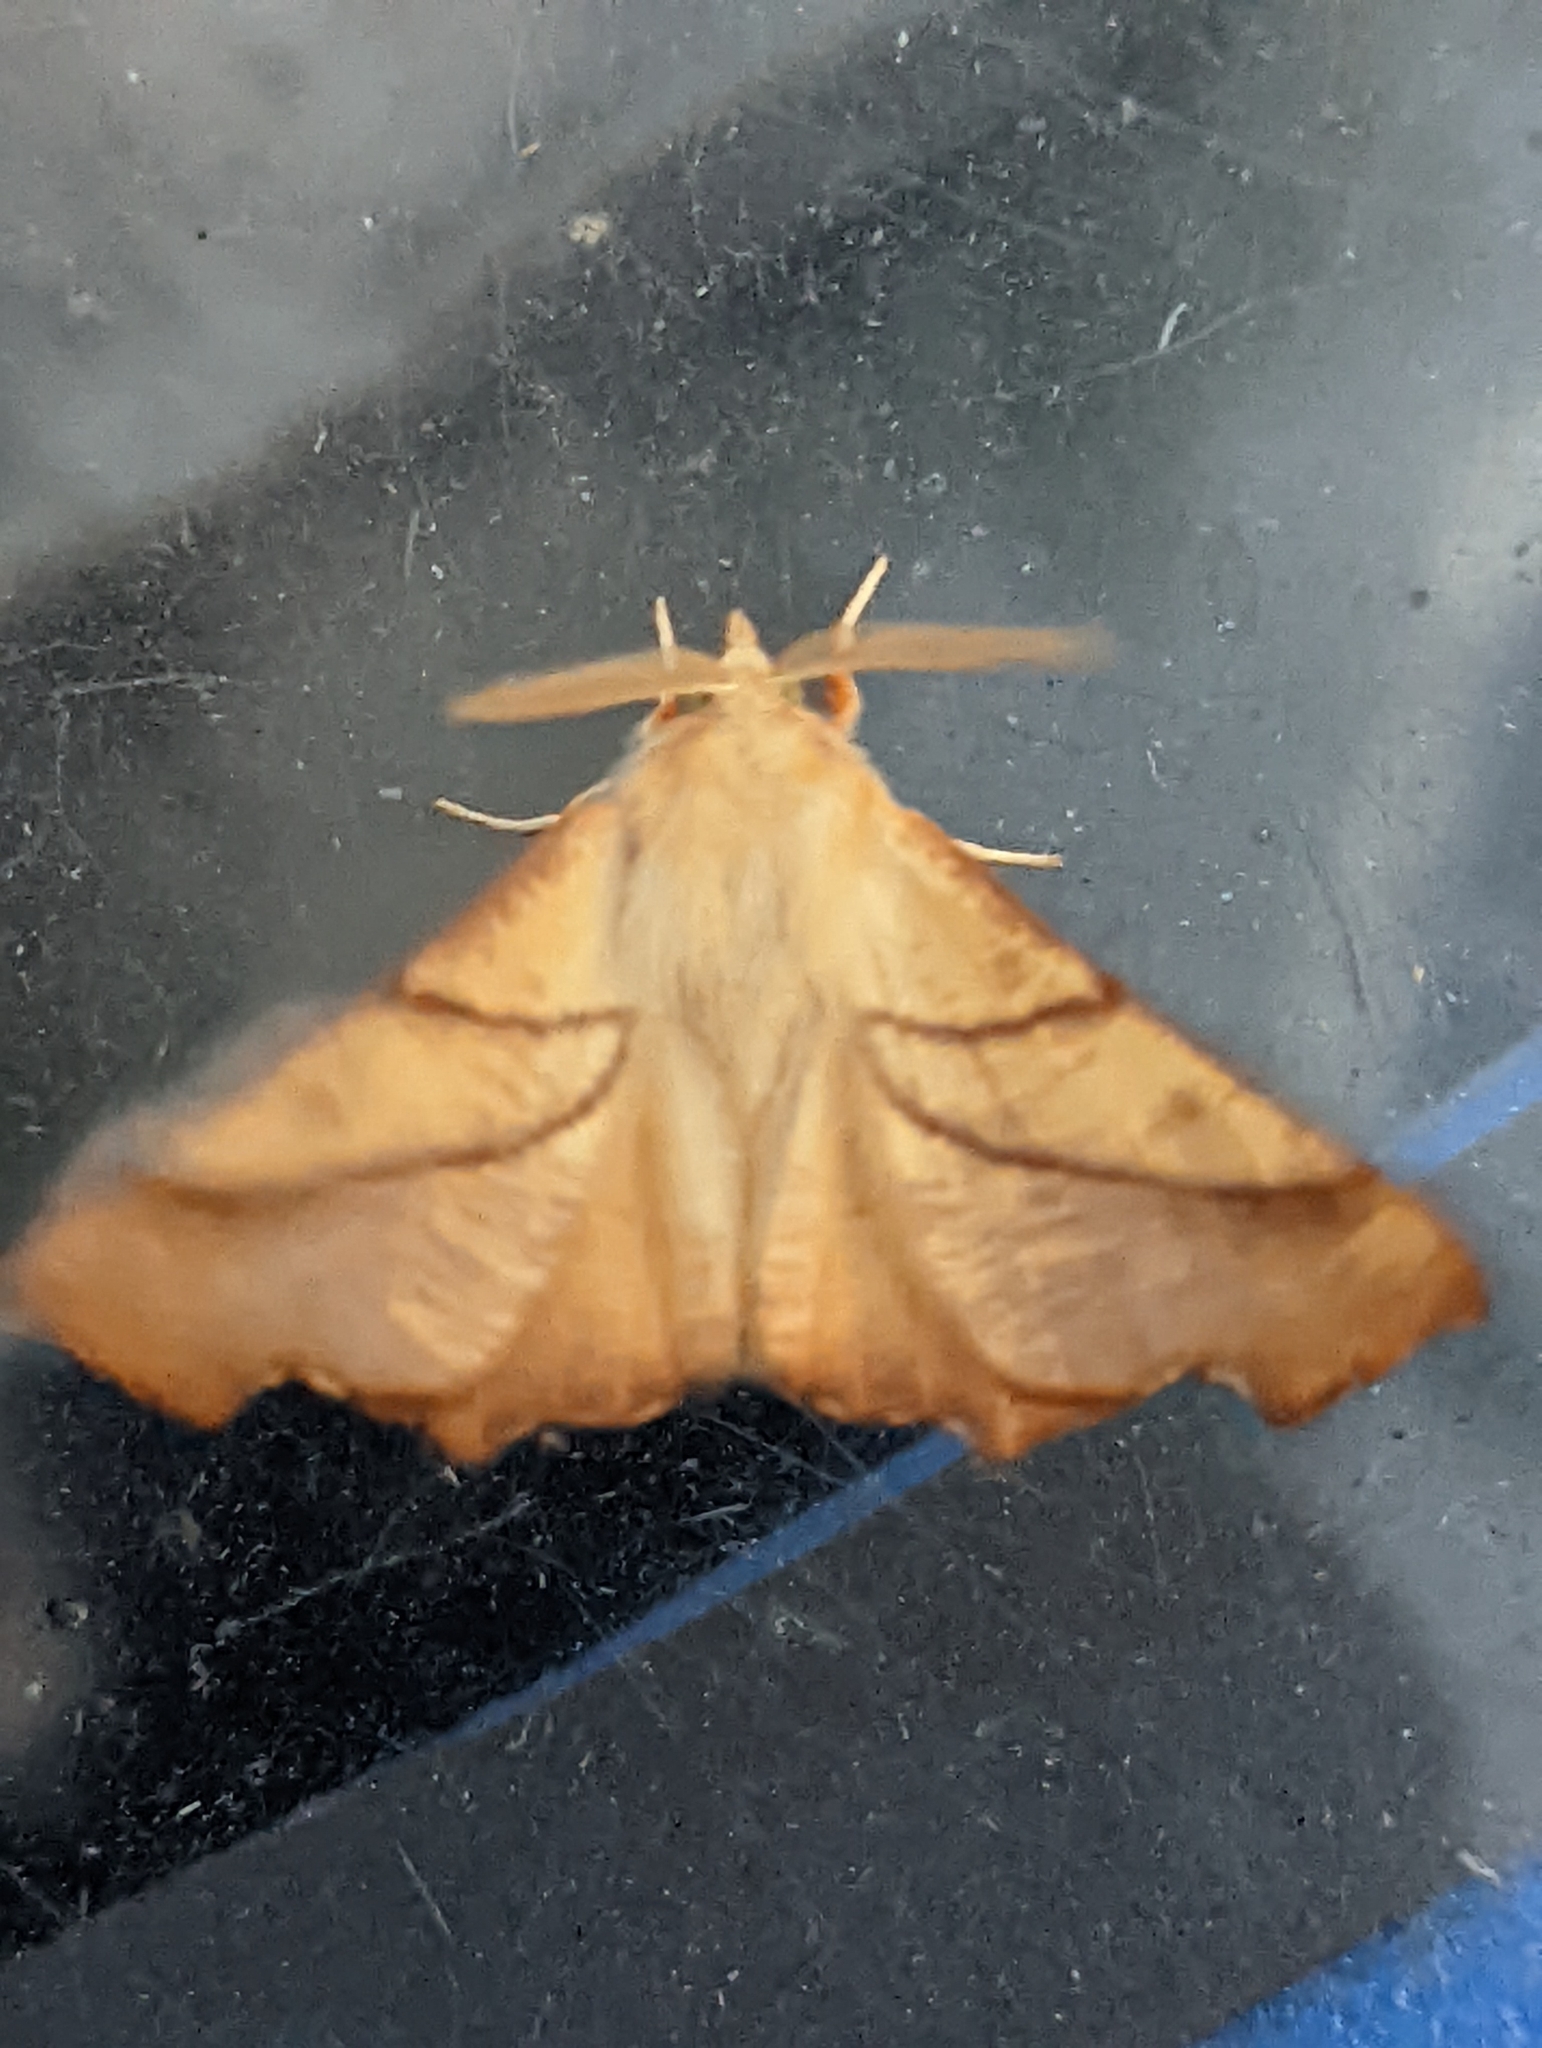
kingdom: Animalia
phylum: Arthropoda
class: Insecta
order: Lepidoptera
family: Geometridae
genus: Ennomos
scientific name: Ennomos fuscantaria
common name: Dusky thorn
